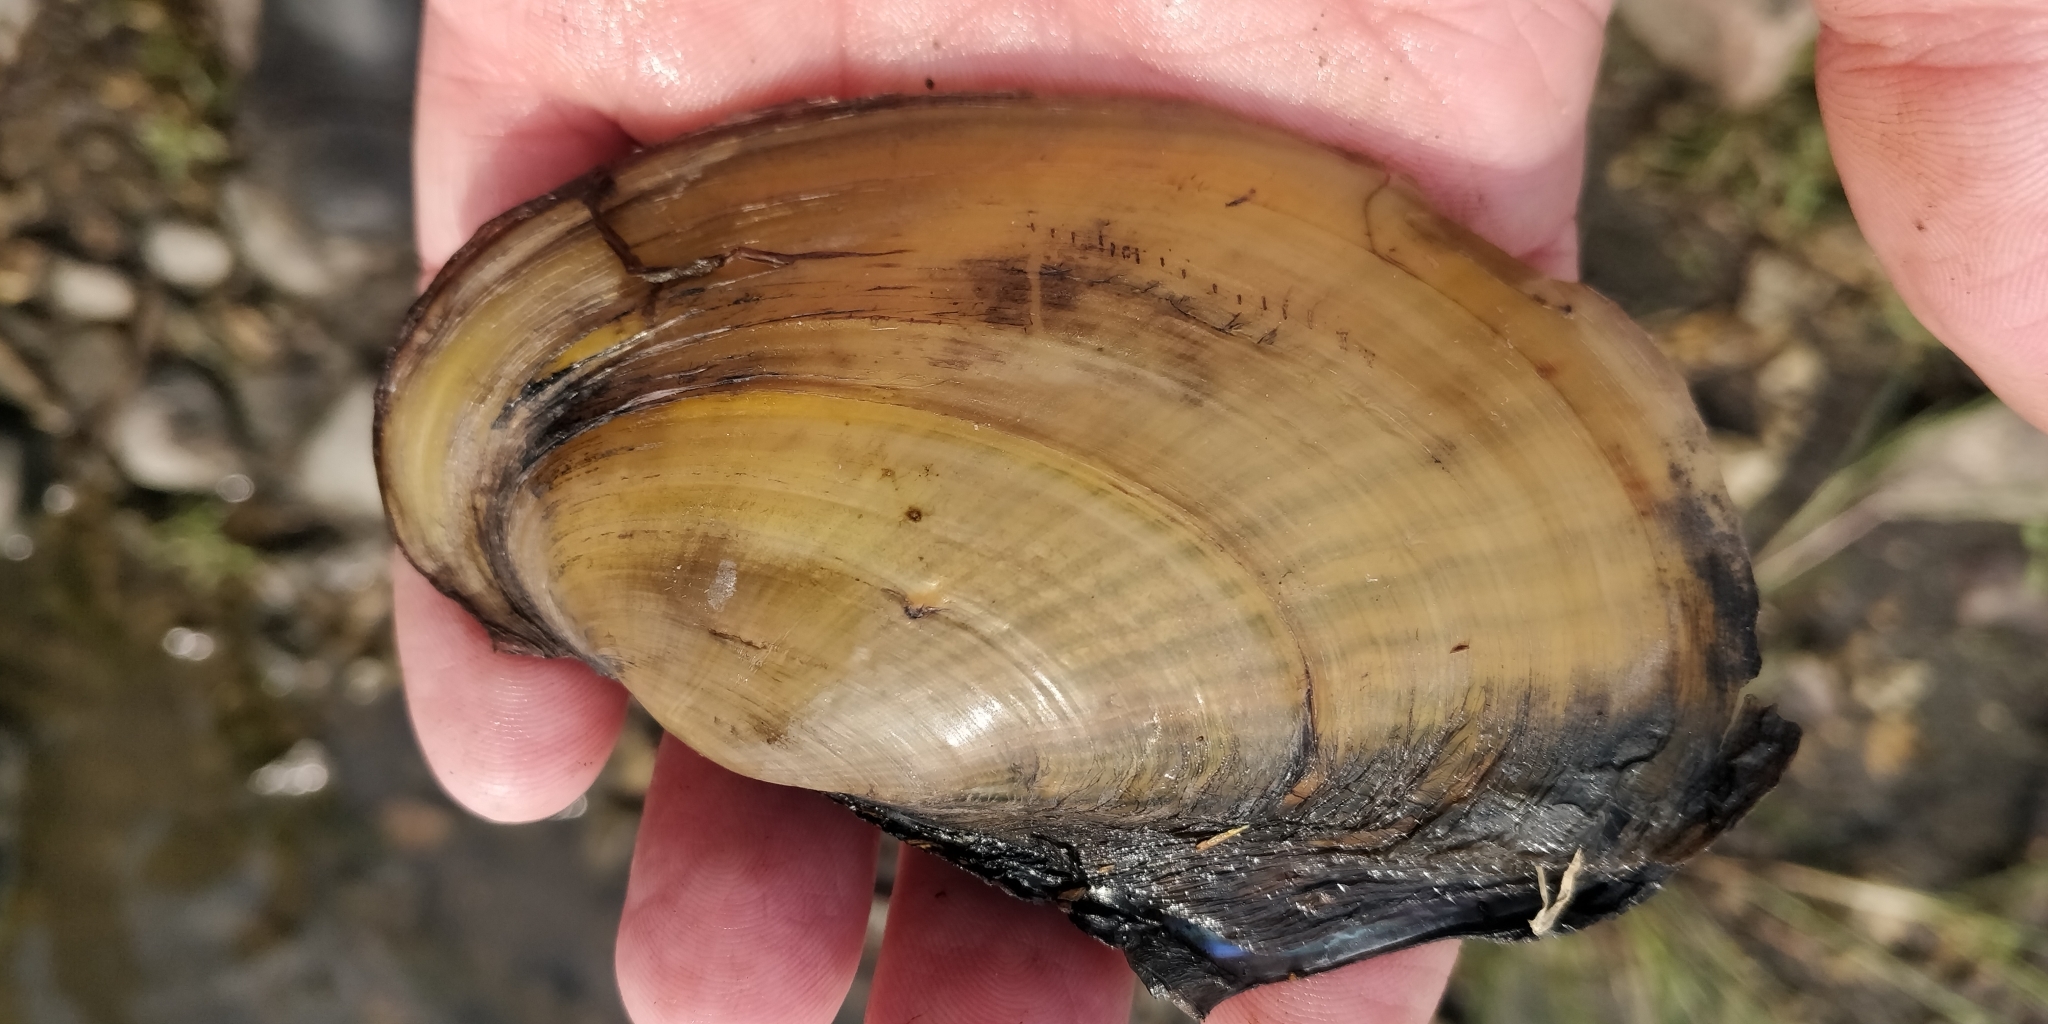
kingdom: Animalia
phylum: Mollusca
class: Bivalvia
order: Unionida
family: Unionidae
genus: Potamilus
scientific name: Potamilus fragilis
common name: Fragile papershell
